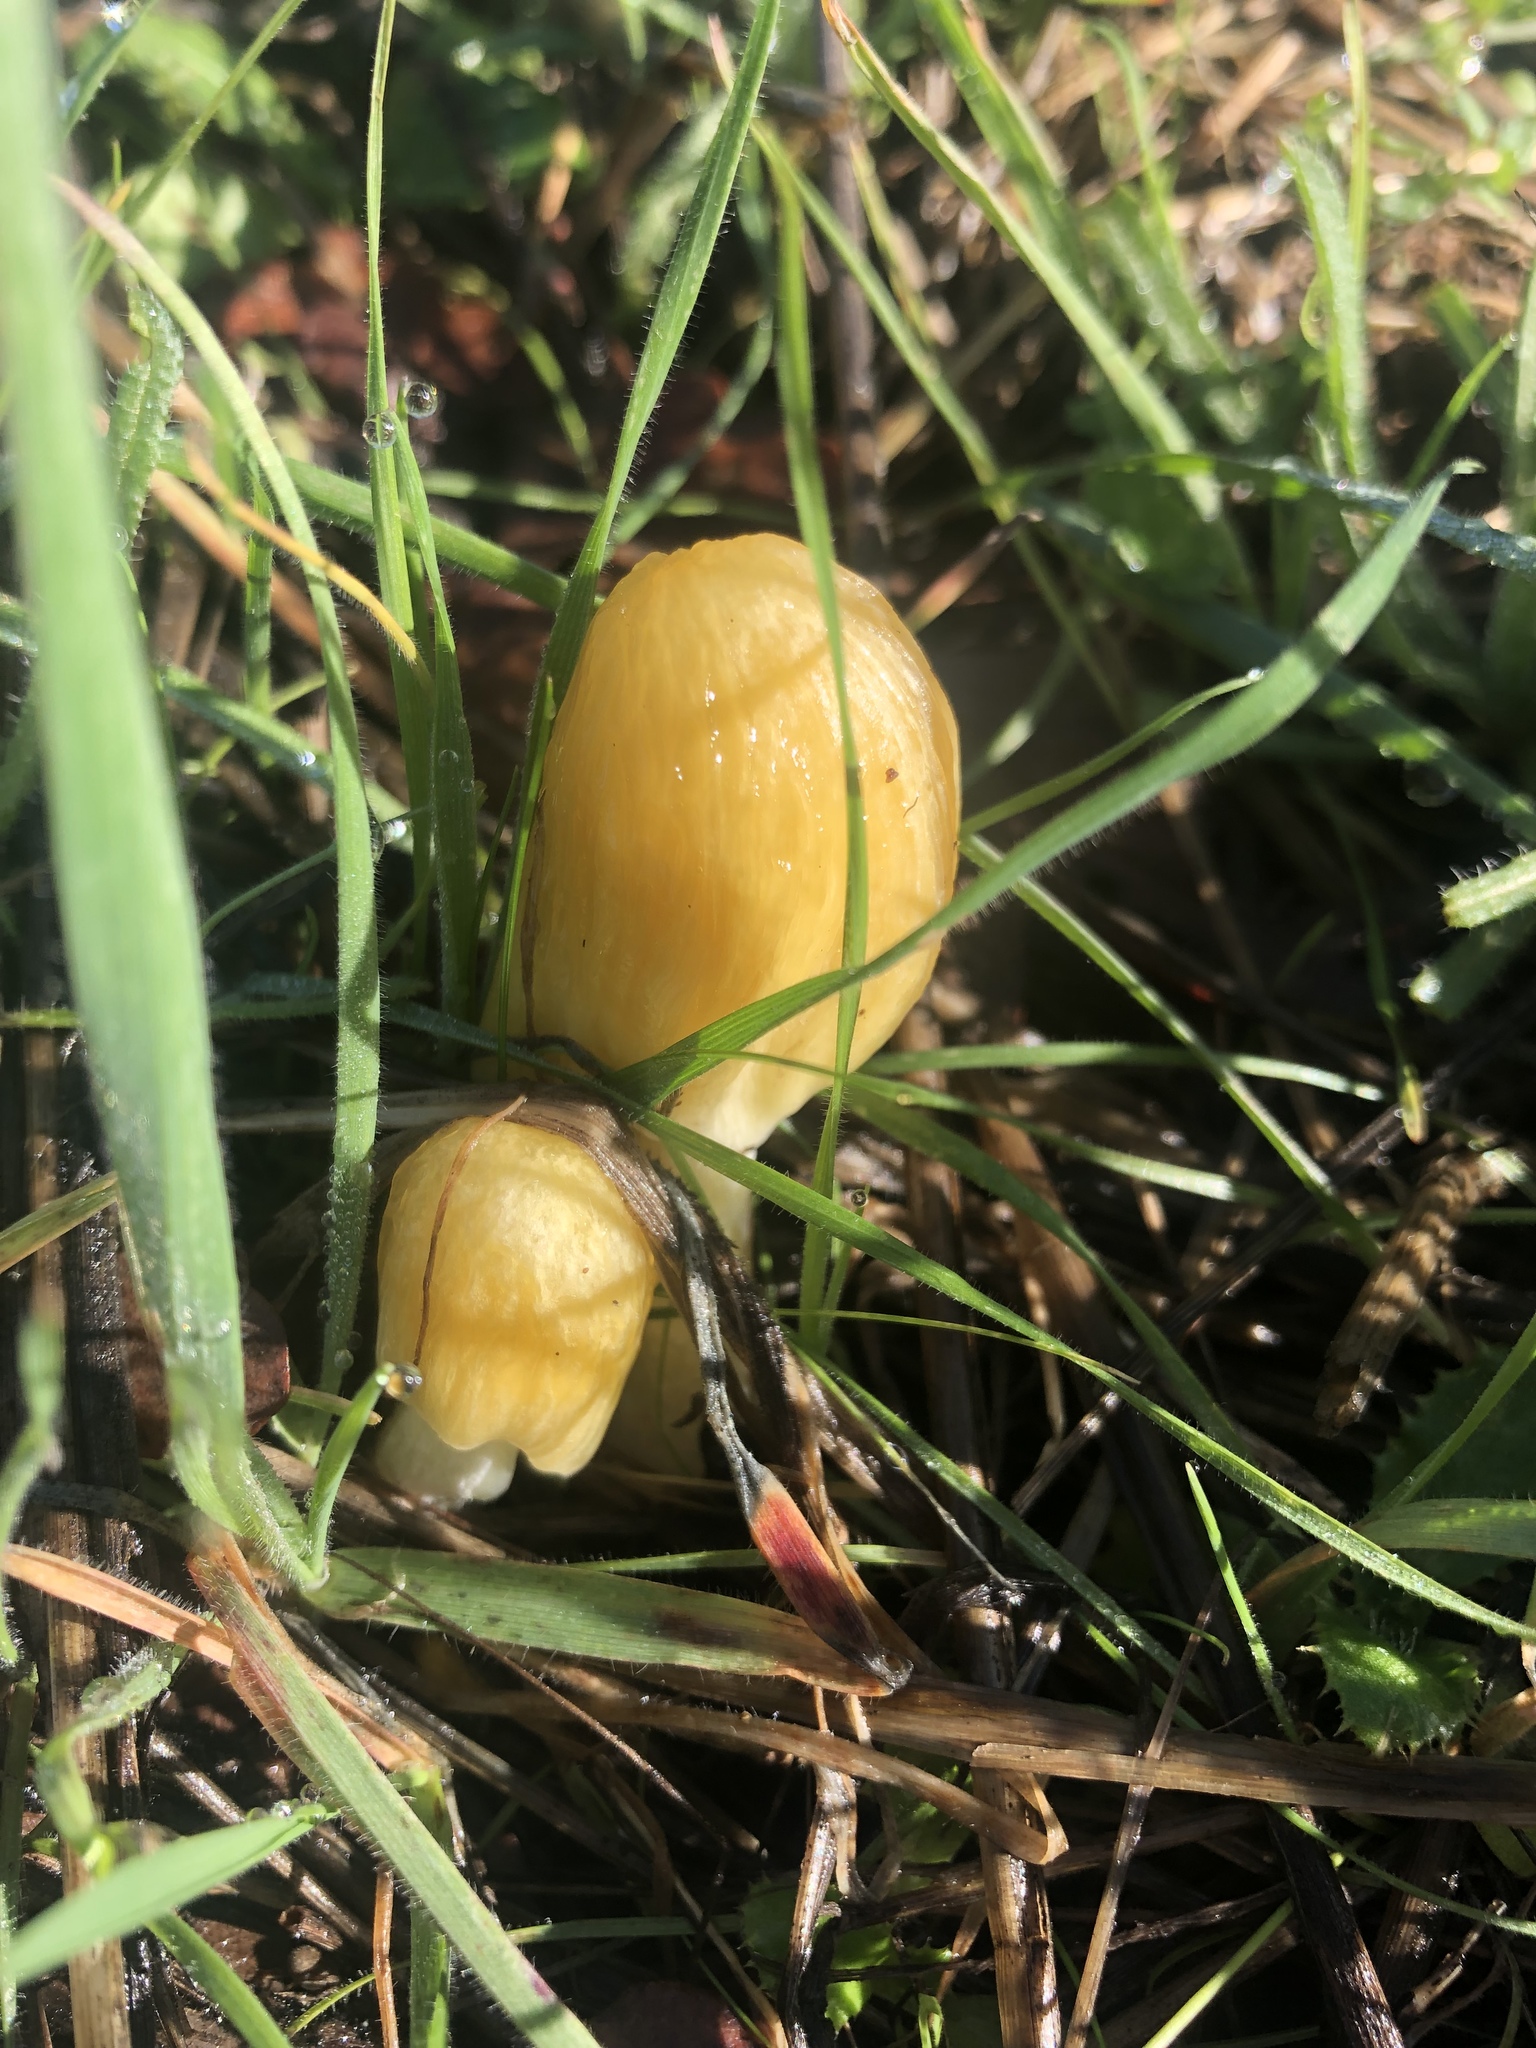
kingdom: Fungi
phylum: Basidiomycota
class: Agaricomycetes
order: Agaricales
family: Bolbitiaceae
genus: Bolbitius
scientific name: Bolbitius titubans
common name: Yellow fieldcap
